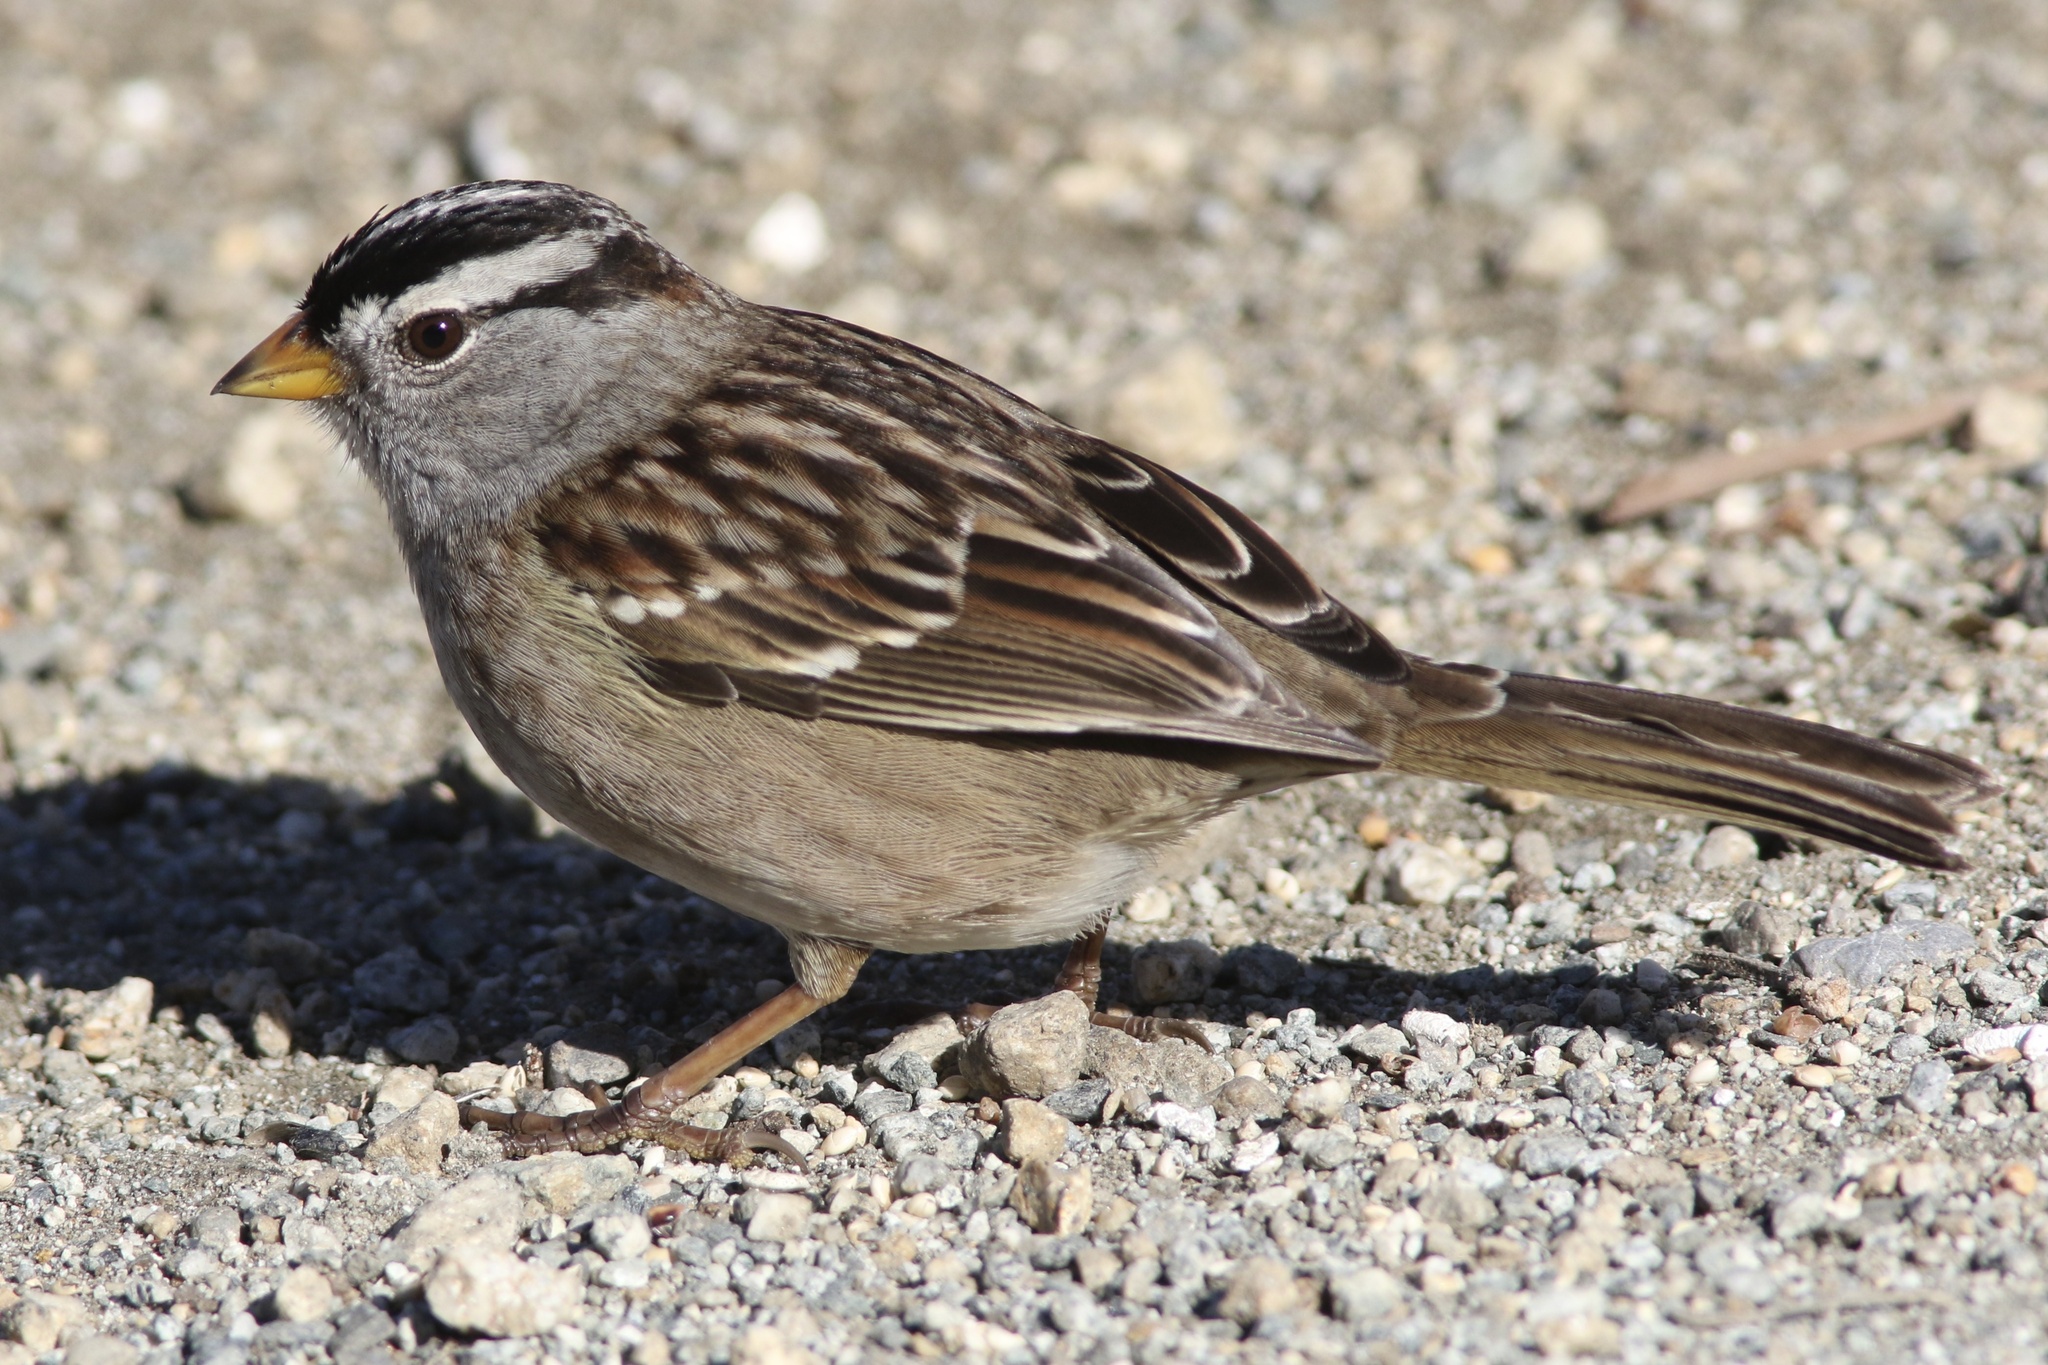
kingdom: Animalia
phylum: Chordata
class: Aves
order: Passeriformes
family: Passerellidae
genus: Zonotrichia
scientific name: Zonotrichia leucophrys
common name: White-crowned sparrow
